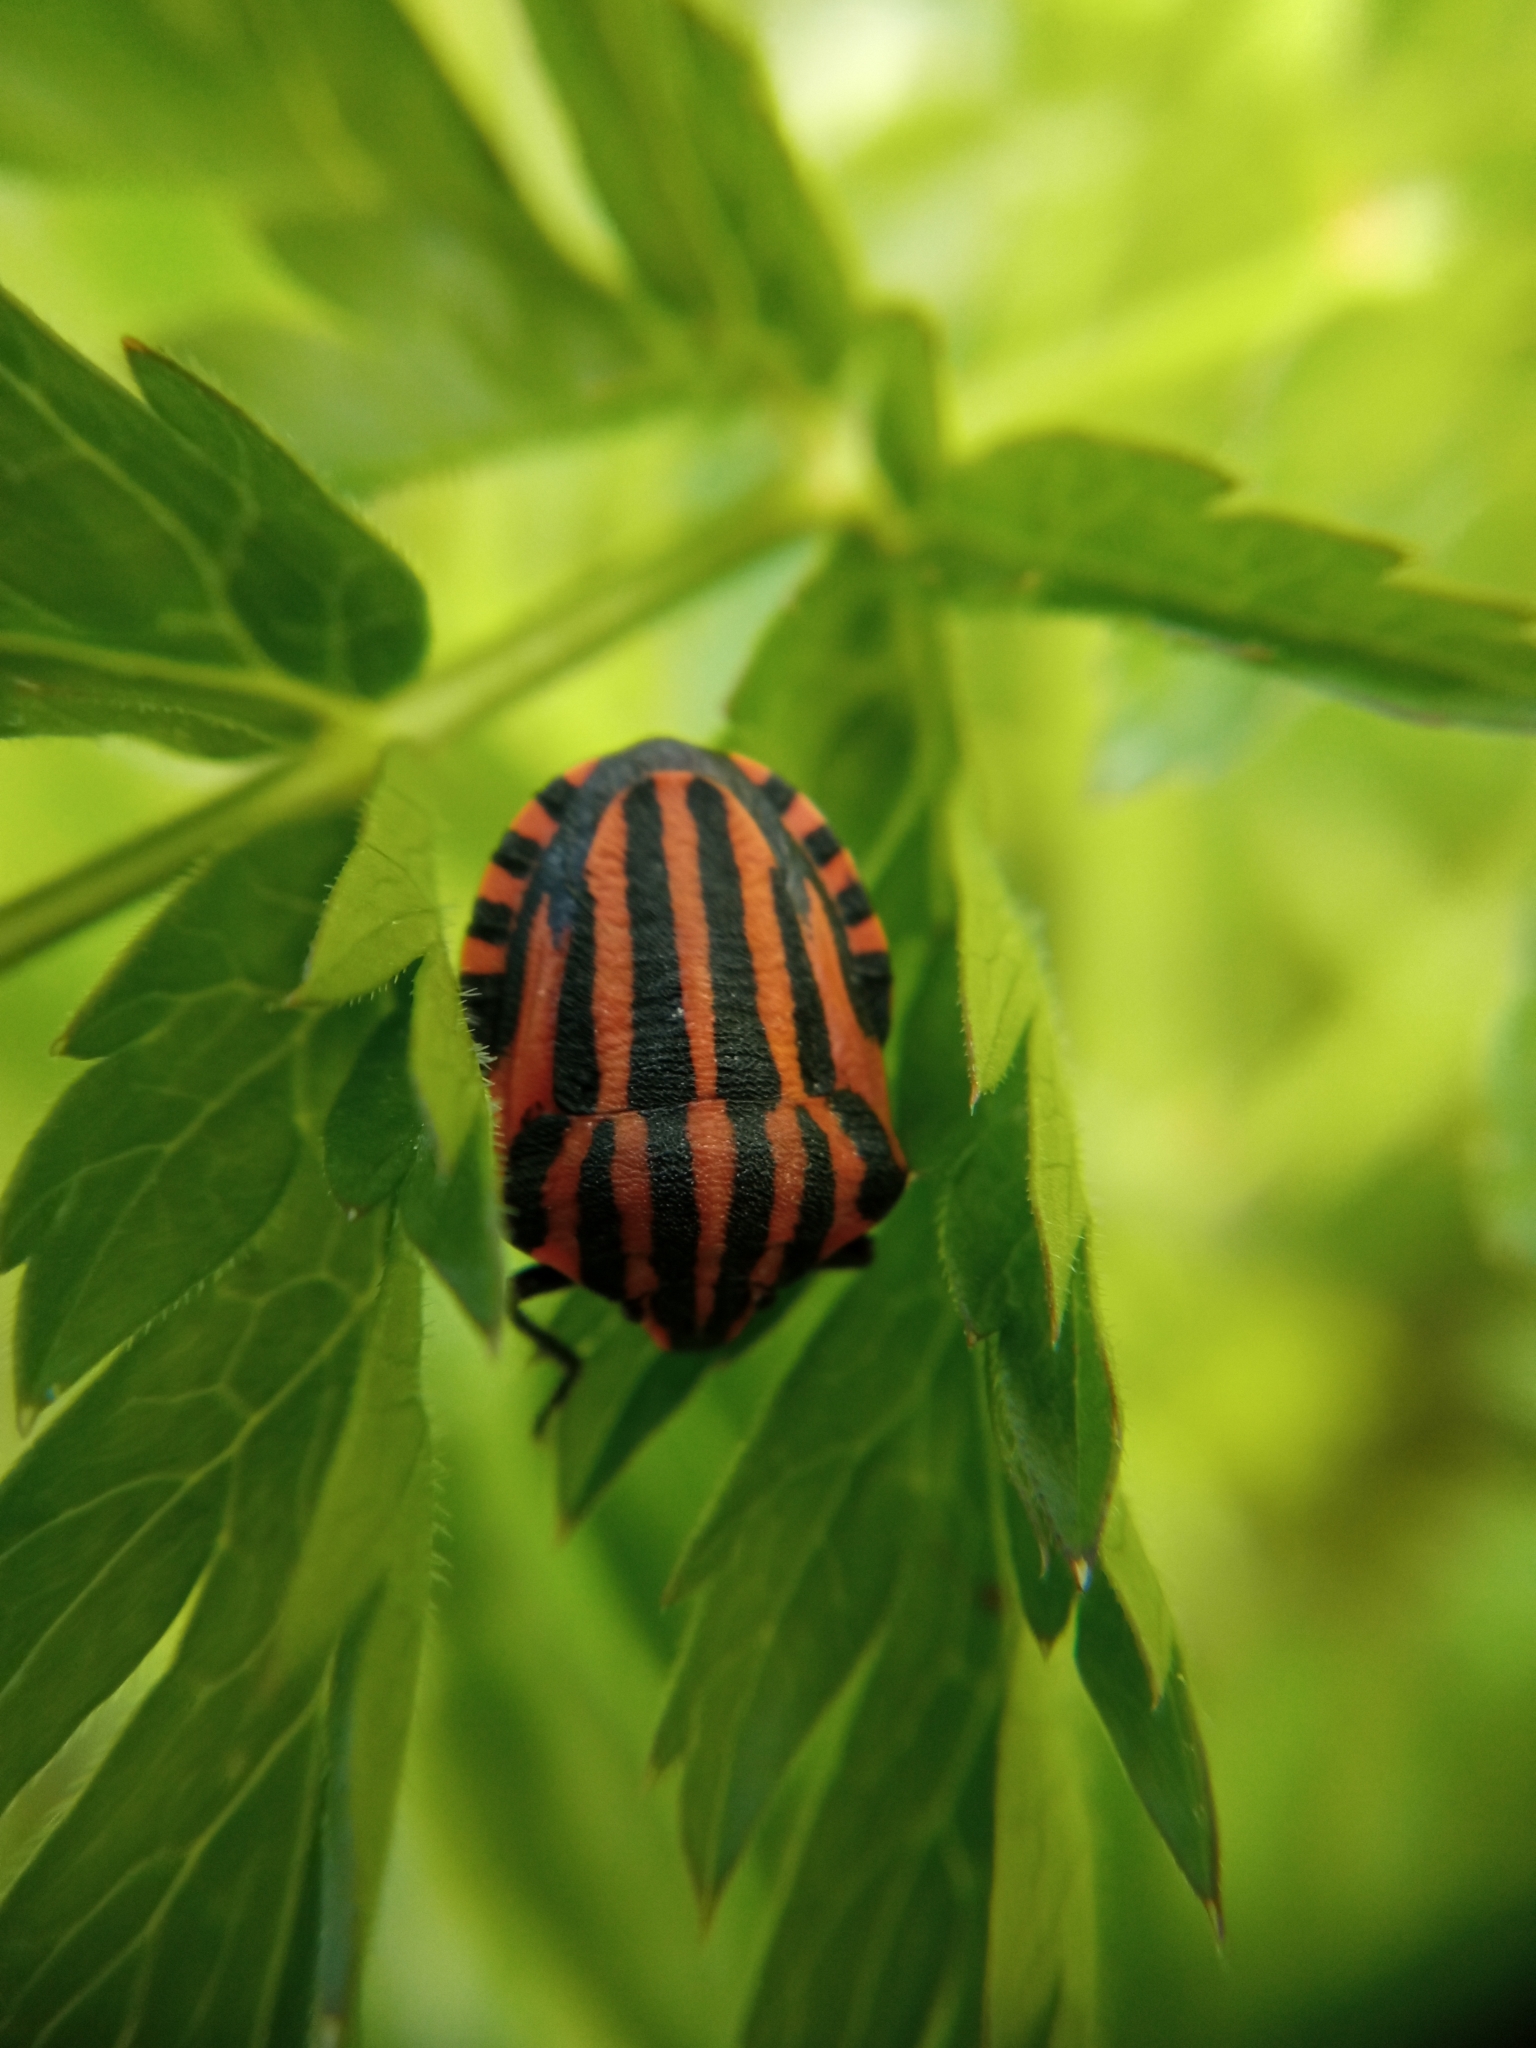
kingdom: Animalia
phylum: Arthropoda
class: Insecta
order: Hemiptera
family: Pentatomidae
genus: Graphosoma
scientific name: Graphosoma italicum
